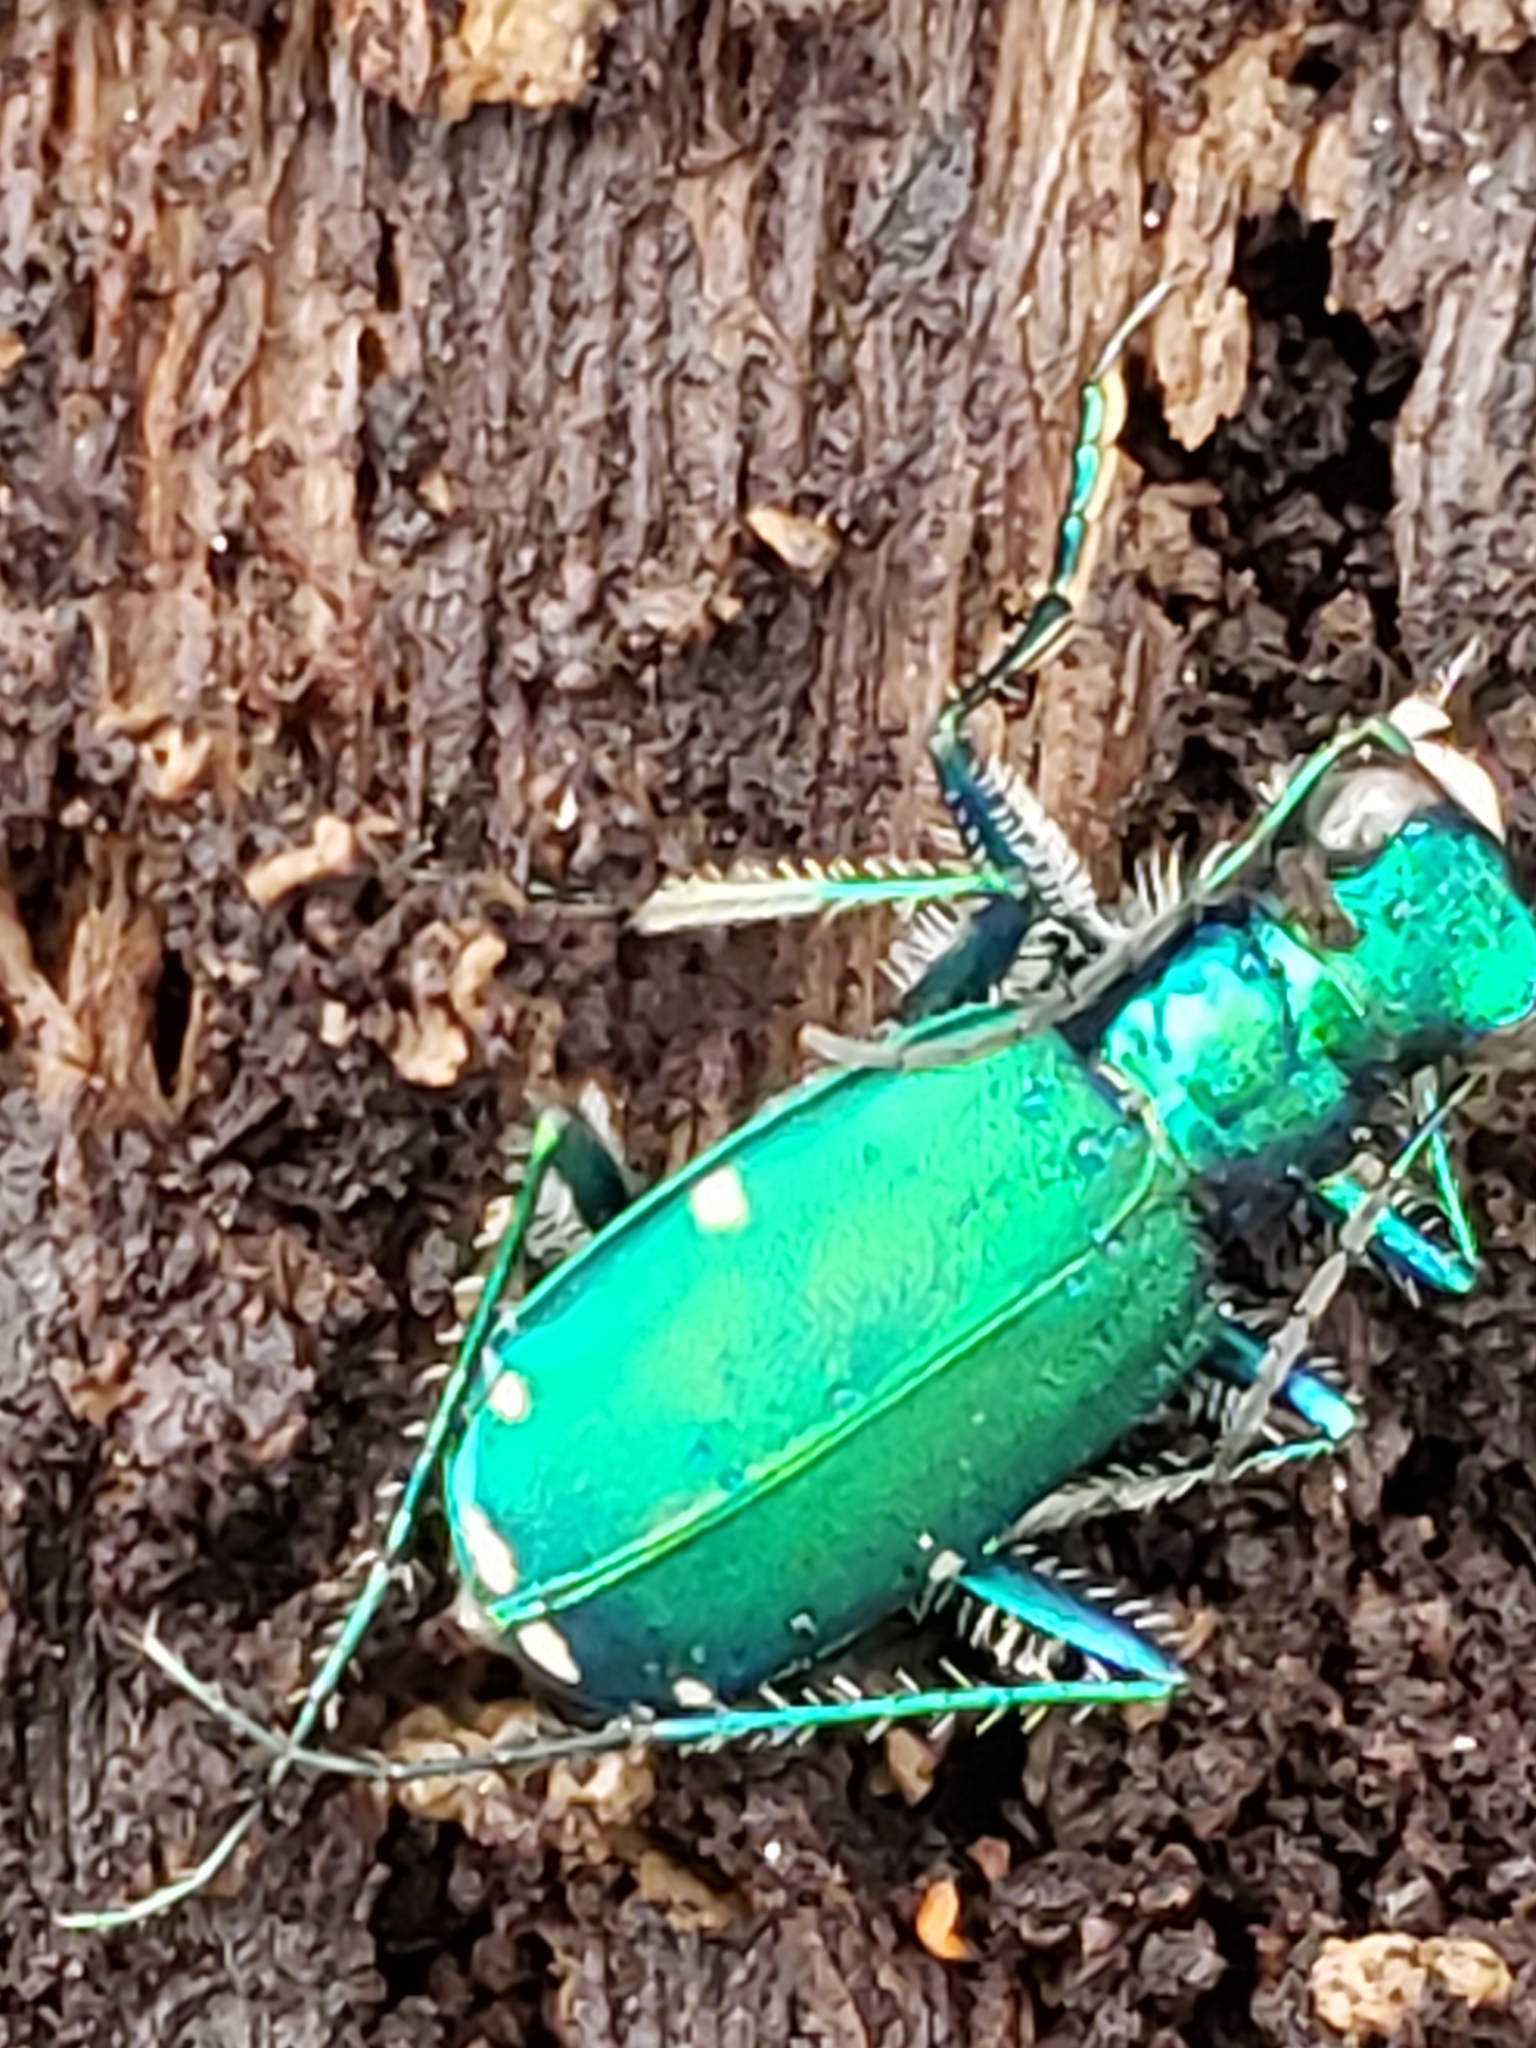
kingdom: Animalia
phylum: Arthropoda
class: Insecta
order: Coleoptera
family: Carabidae
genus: Cicindela
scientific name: Cicindela sexguttata
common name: Six-spotted tiger beetle
